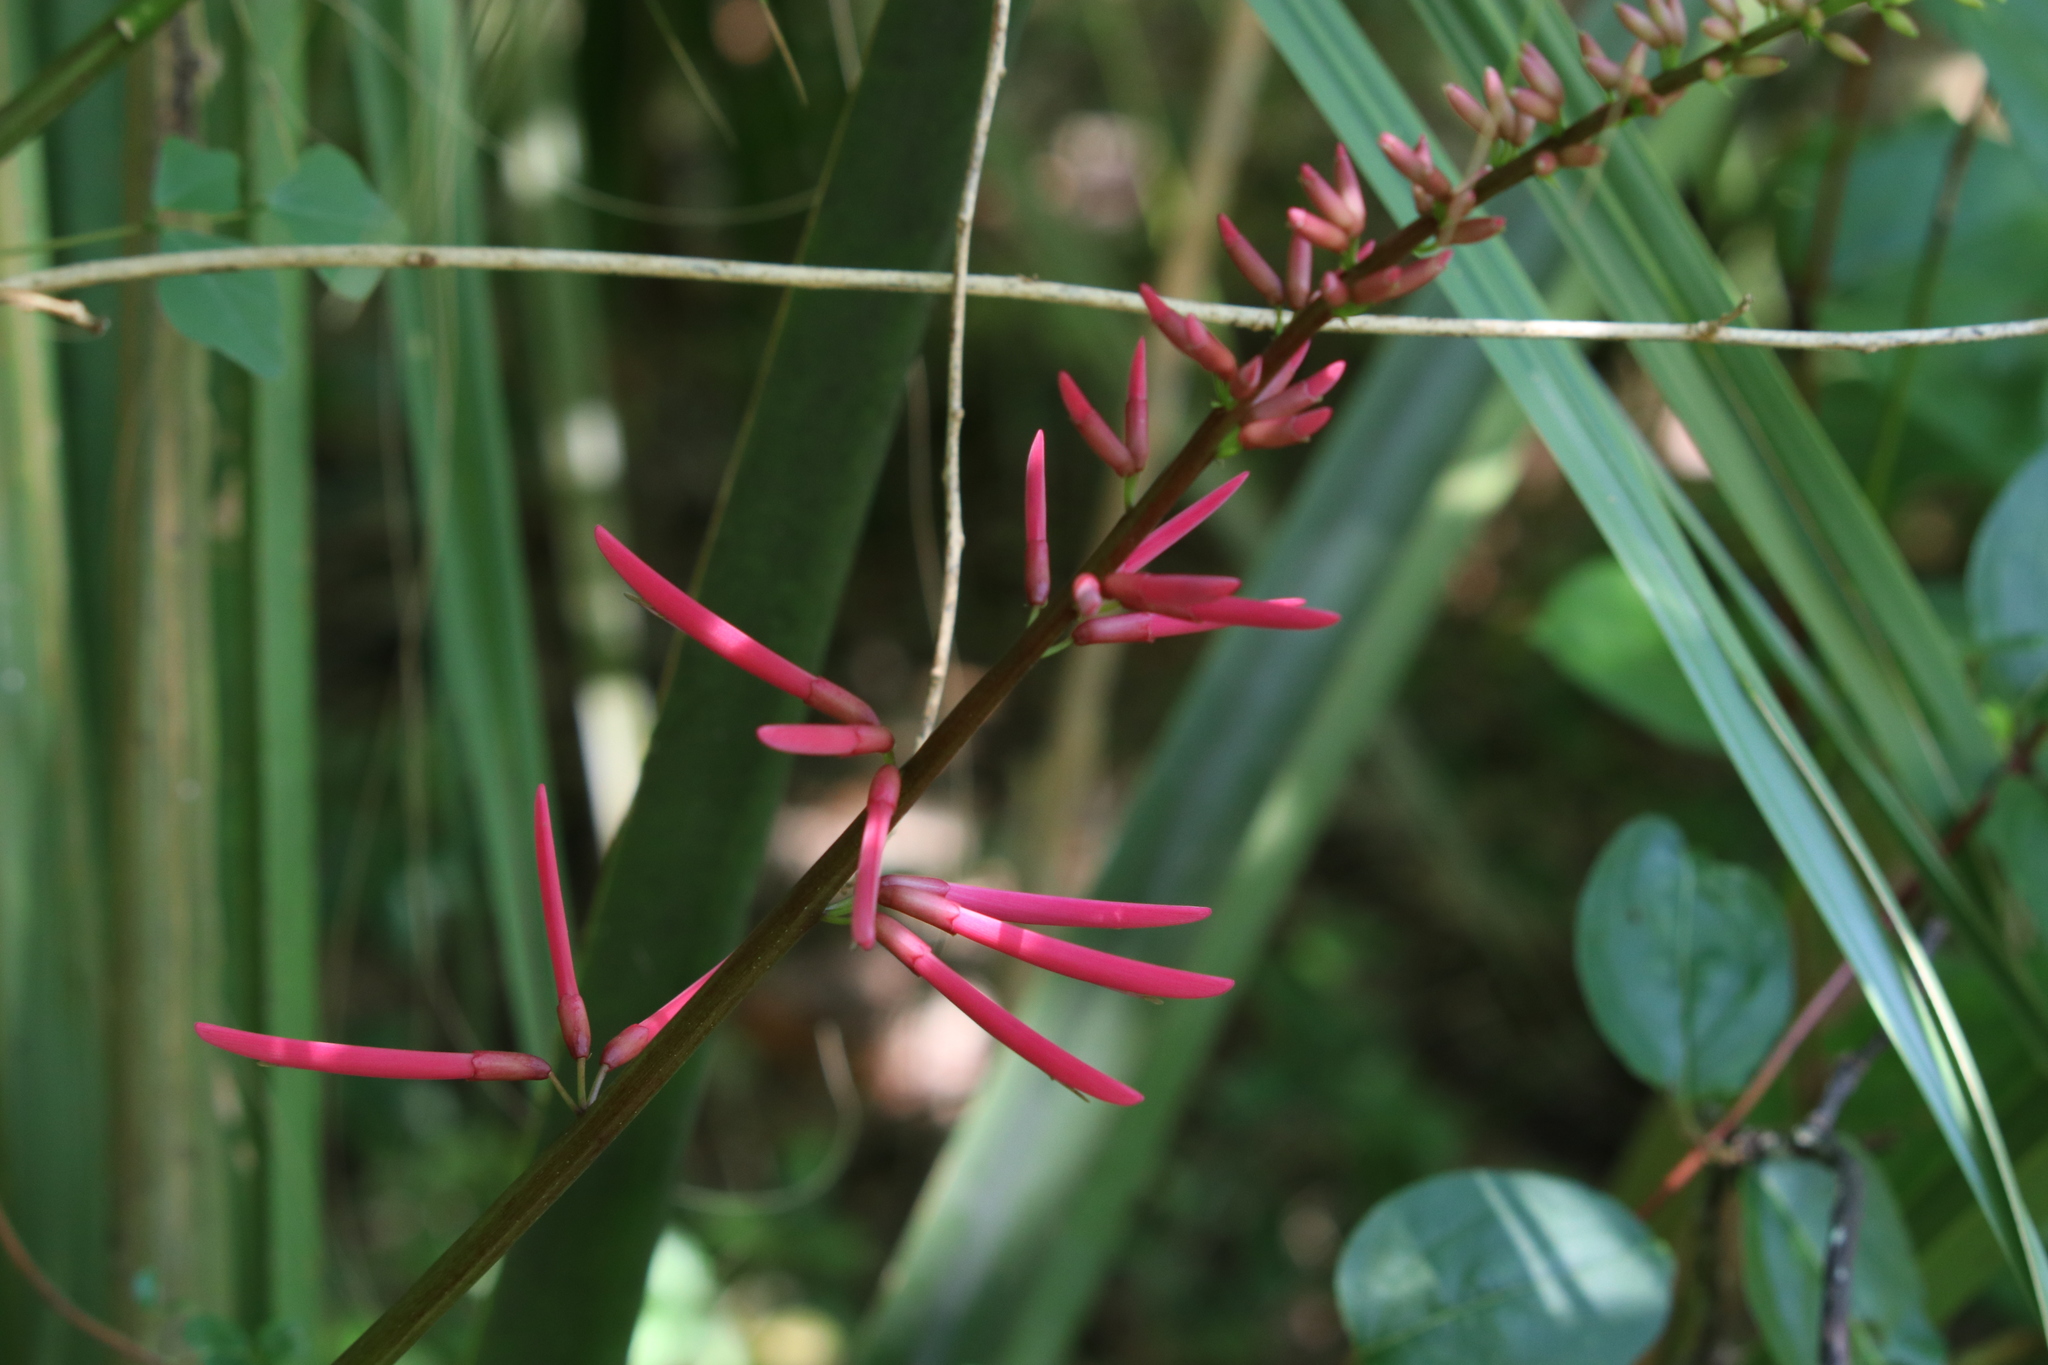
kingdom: Plantae
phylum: Tracheophyta
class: Magnoliopsida
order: Fabales
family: Fabaceae
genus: Erythrina
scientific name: Erythrina herbacea
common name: Coral-bean
